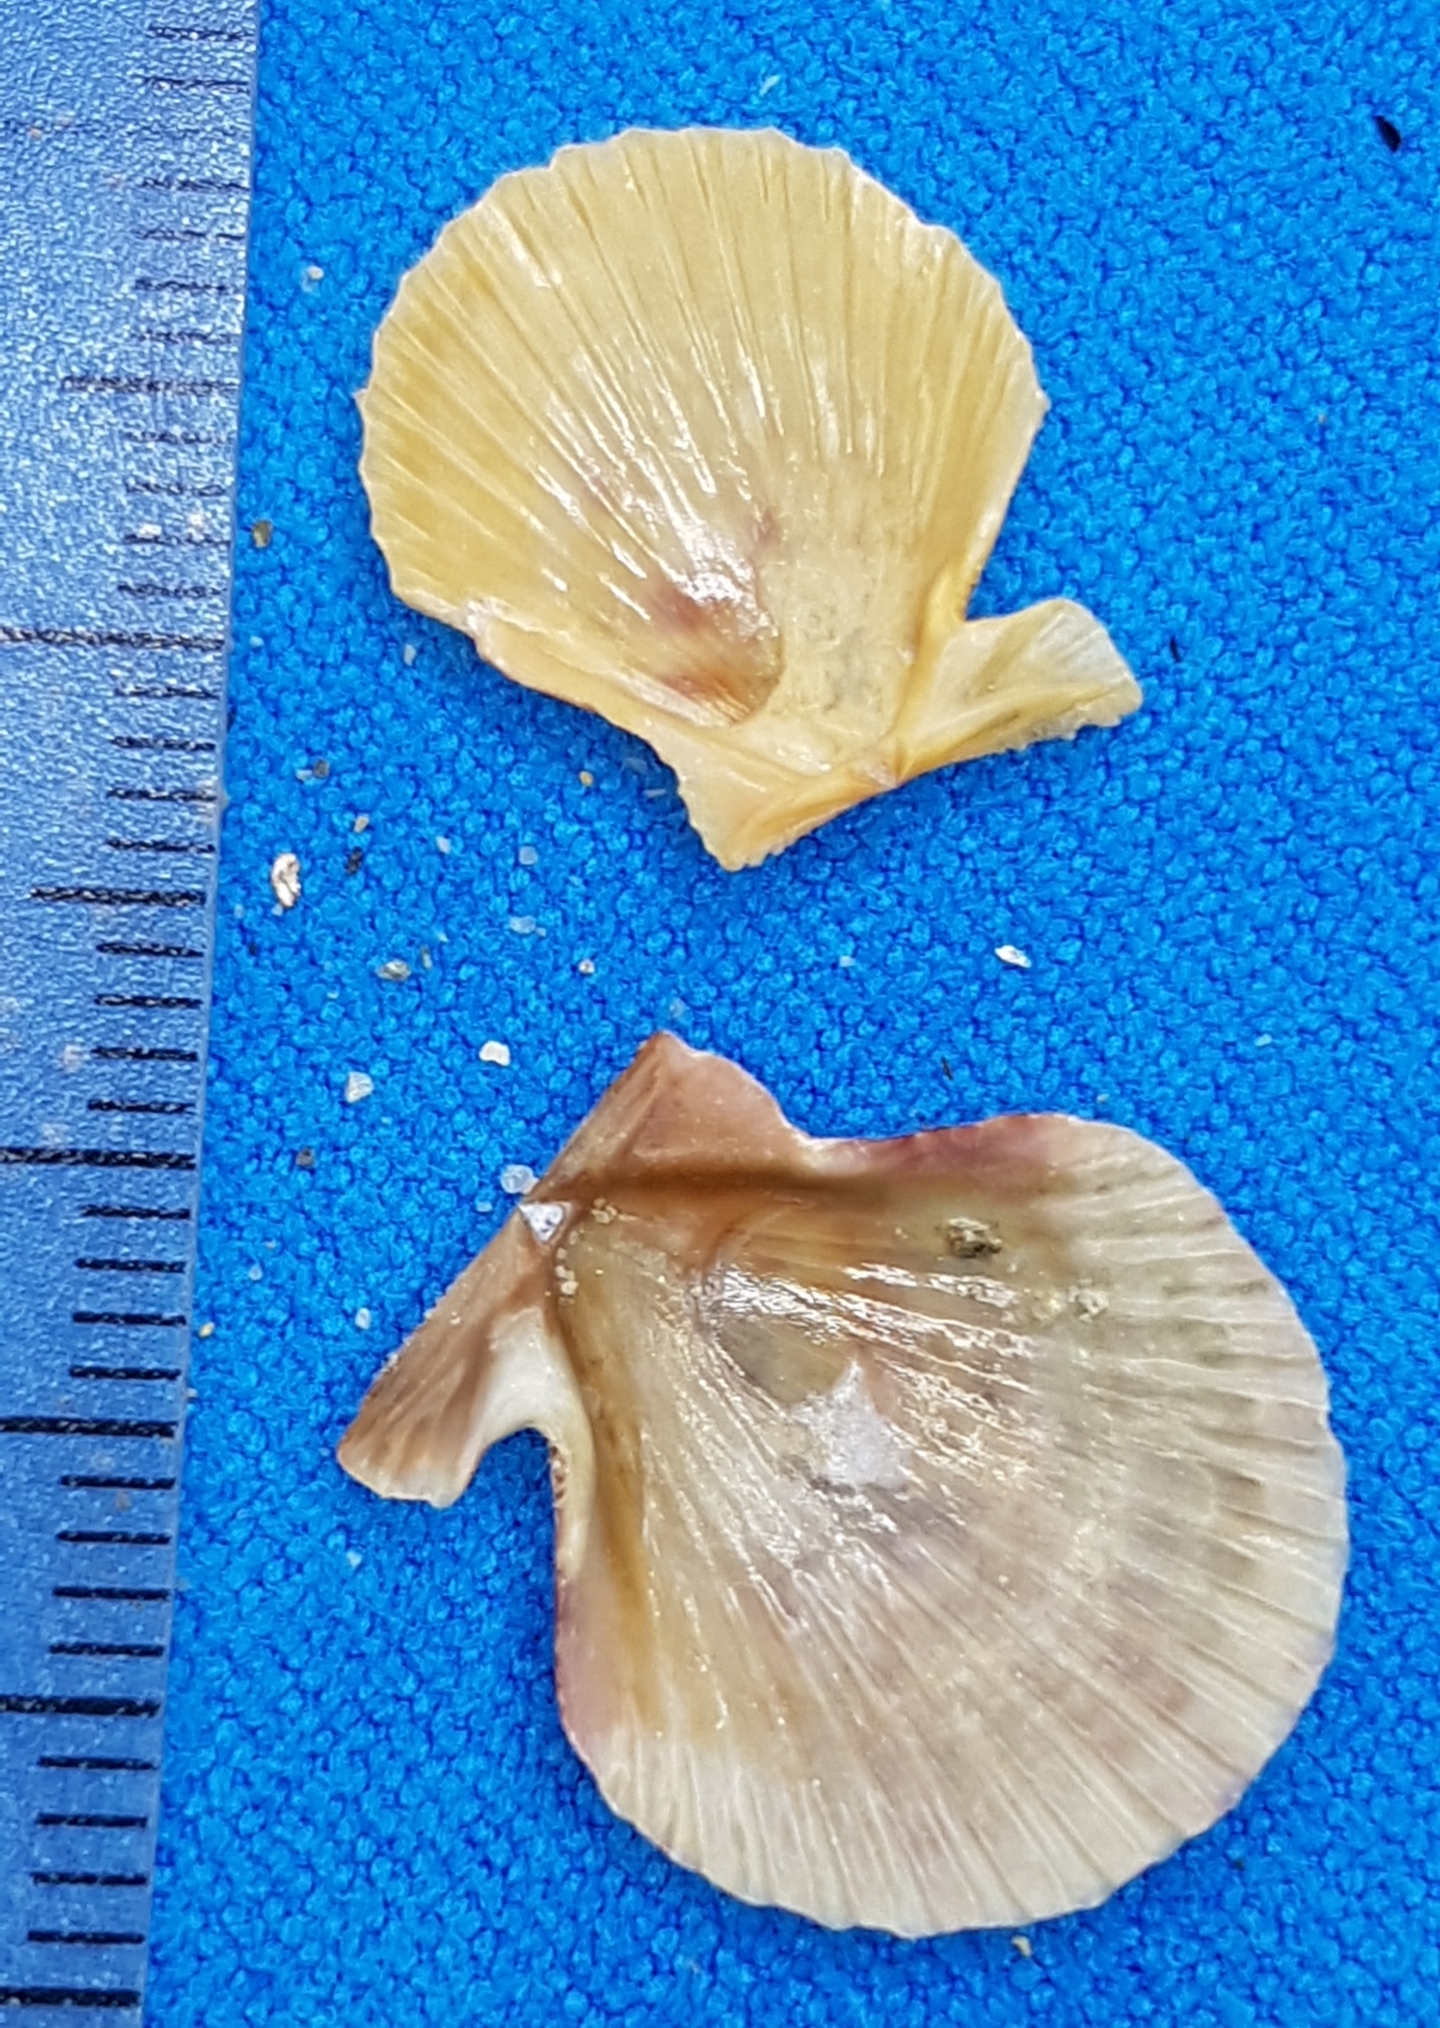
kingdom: Animalia
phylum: Mollusca
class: Bivalvia
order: Pectinida
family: Pectinidae
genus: Aequipecten
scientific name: Aequipecten opercularis
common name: Queen scallop
